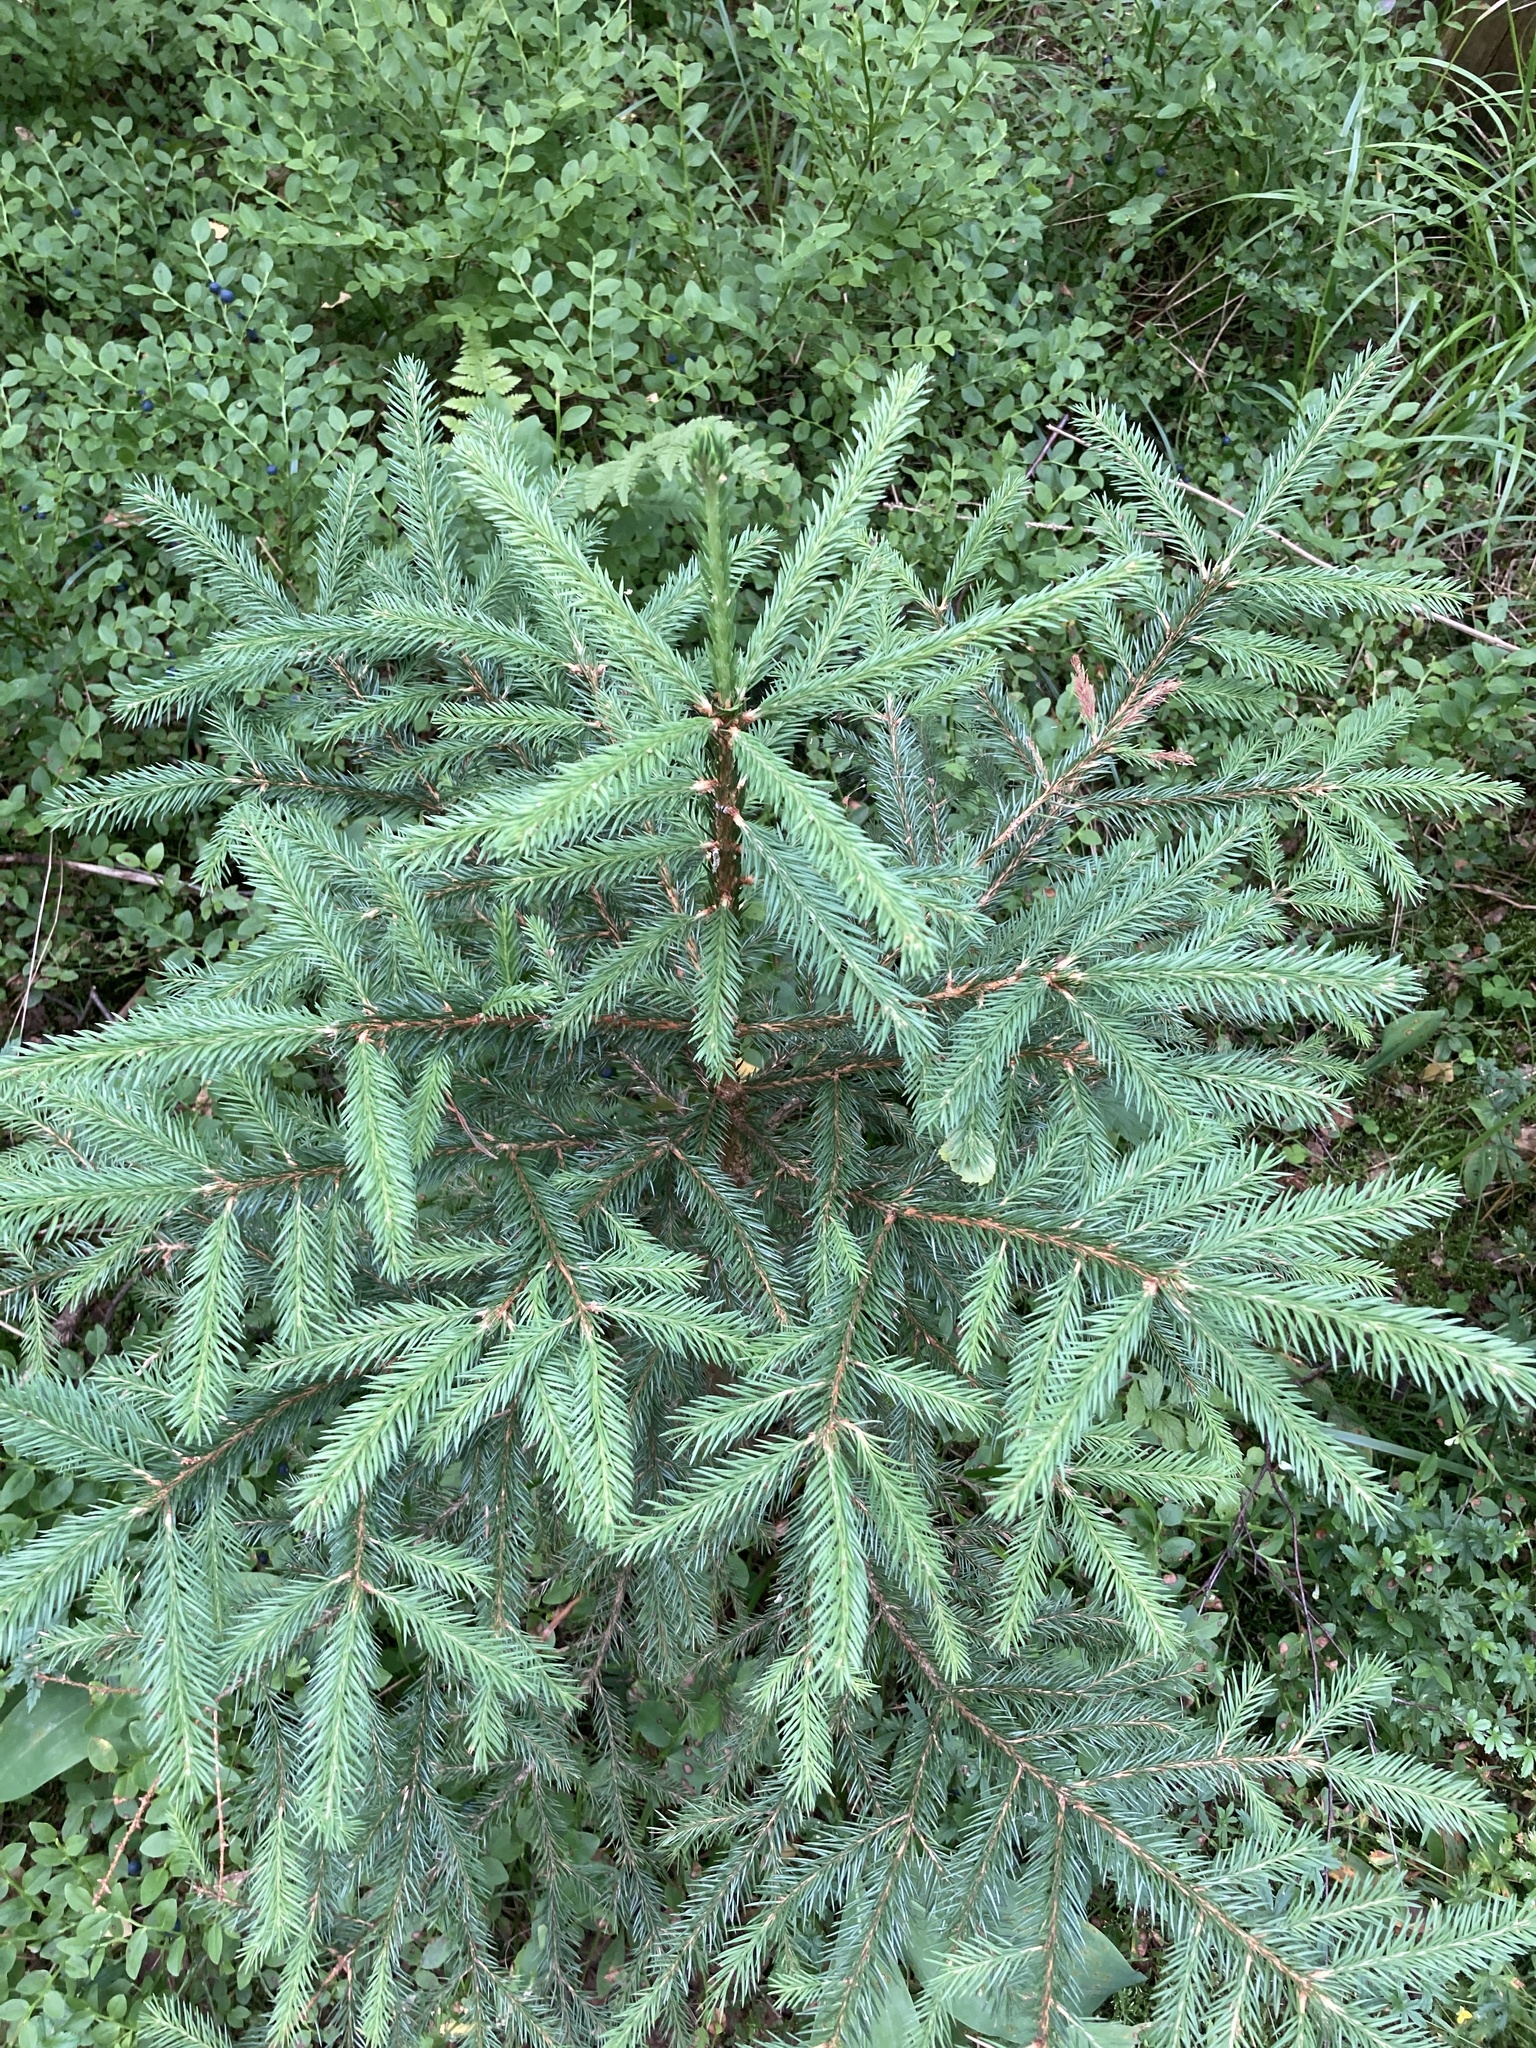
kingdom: Plantae
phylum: Tracheophyta
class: Pinopsida
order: Pinales
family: Pinaceae
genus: Picea
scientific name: Picea abies
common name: Norway spruce
